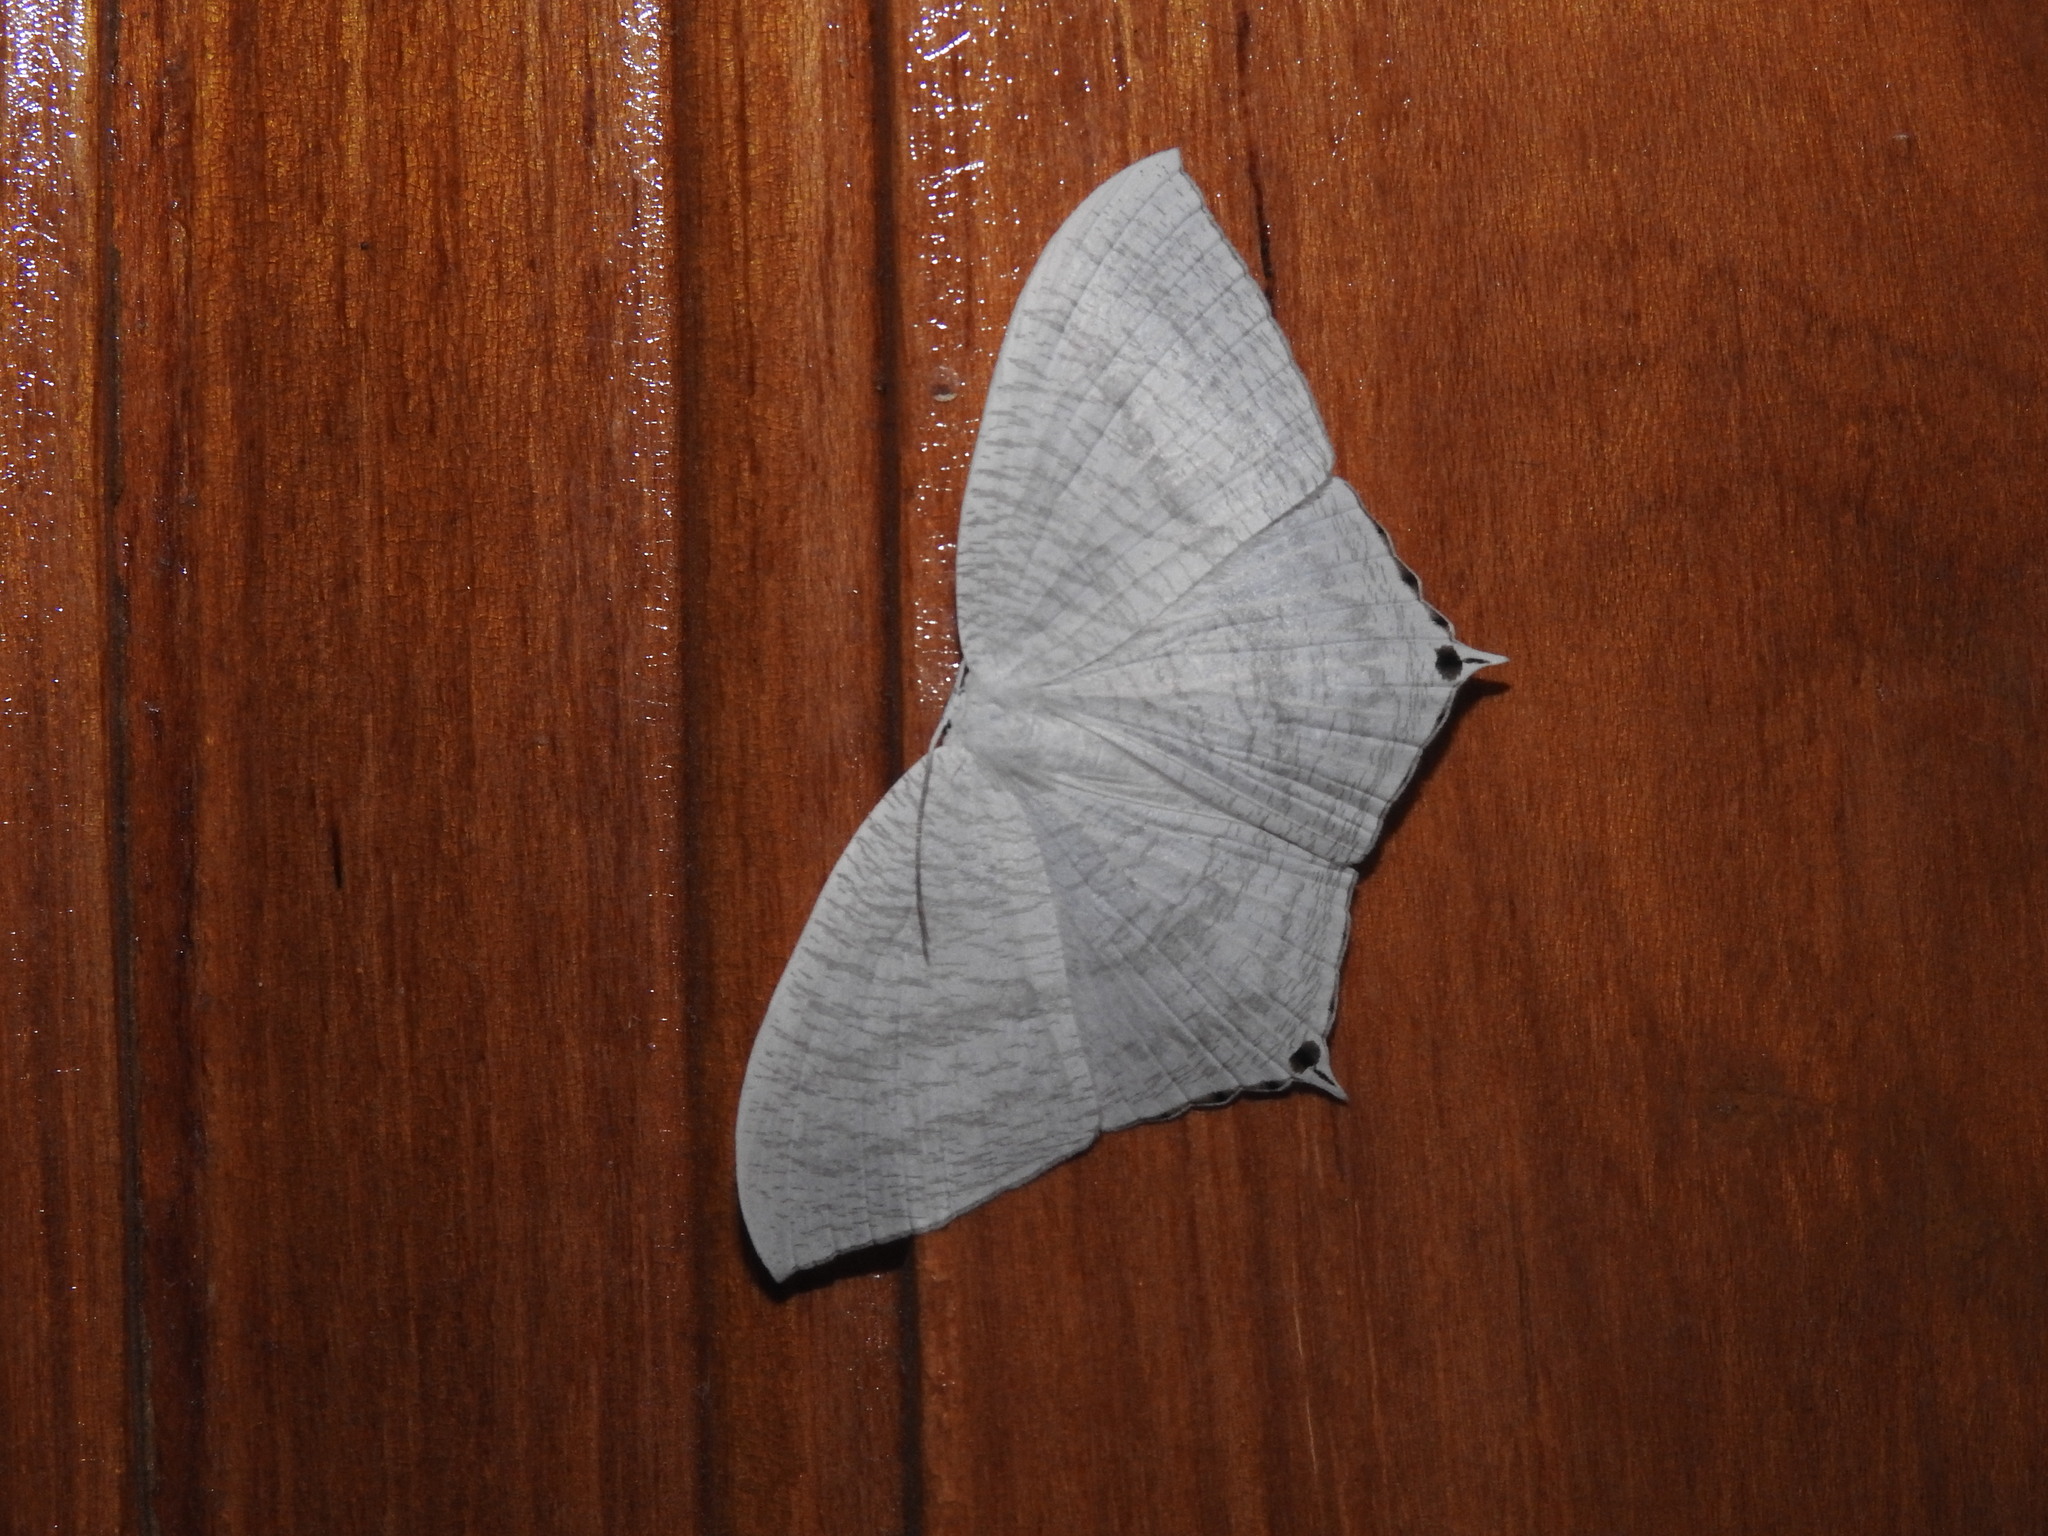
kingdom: Animalia
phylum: Arthropoda
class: Insecta
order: Lepidoptera
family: Uraniidae
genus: Micronia
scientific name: Micronia aculeata
